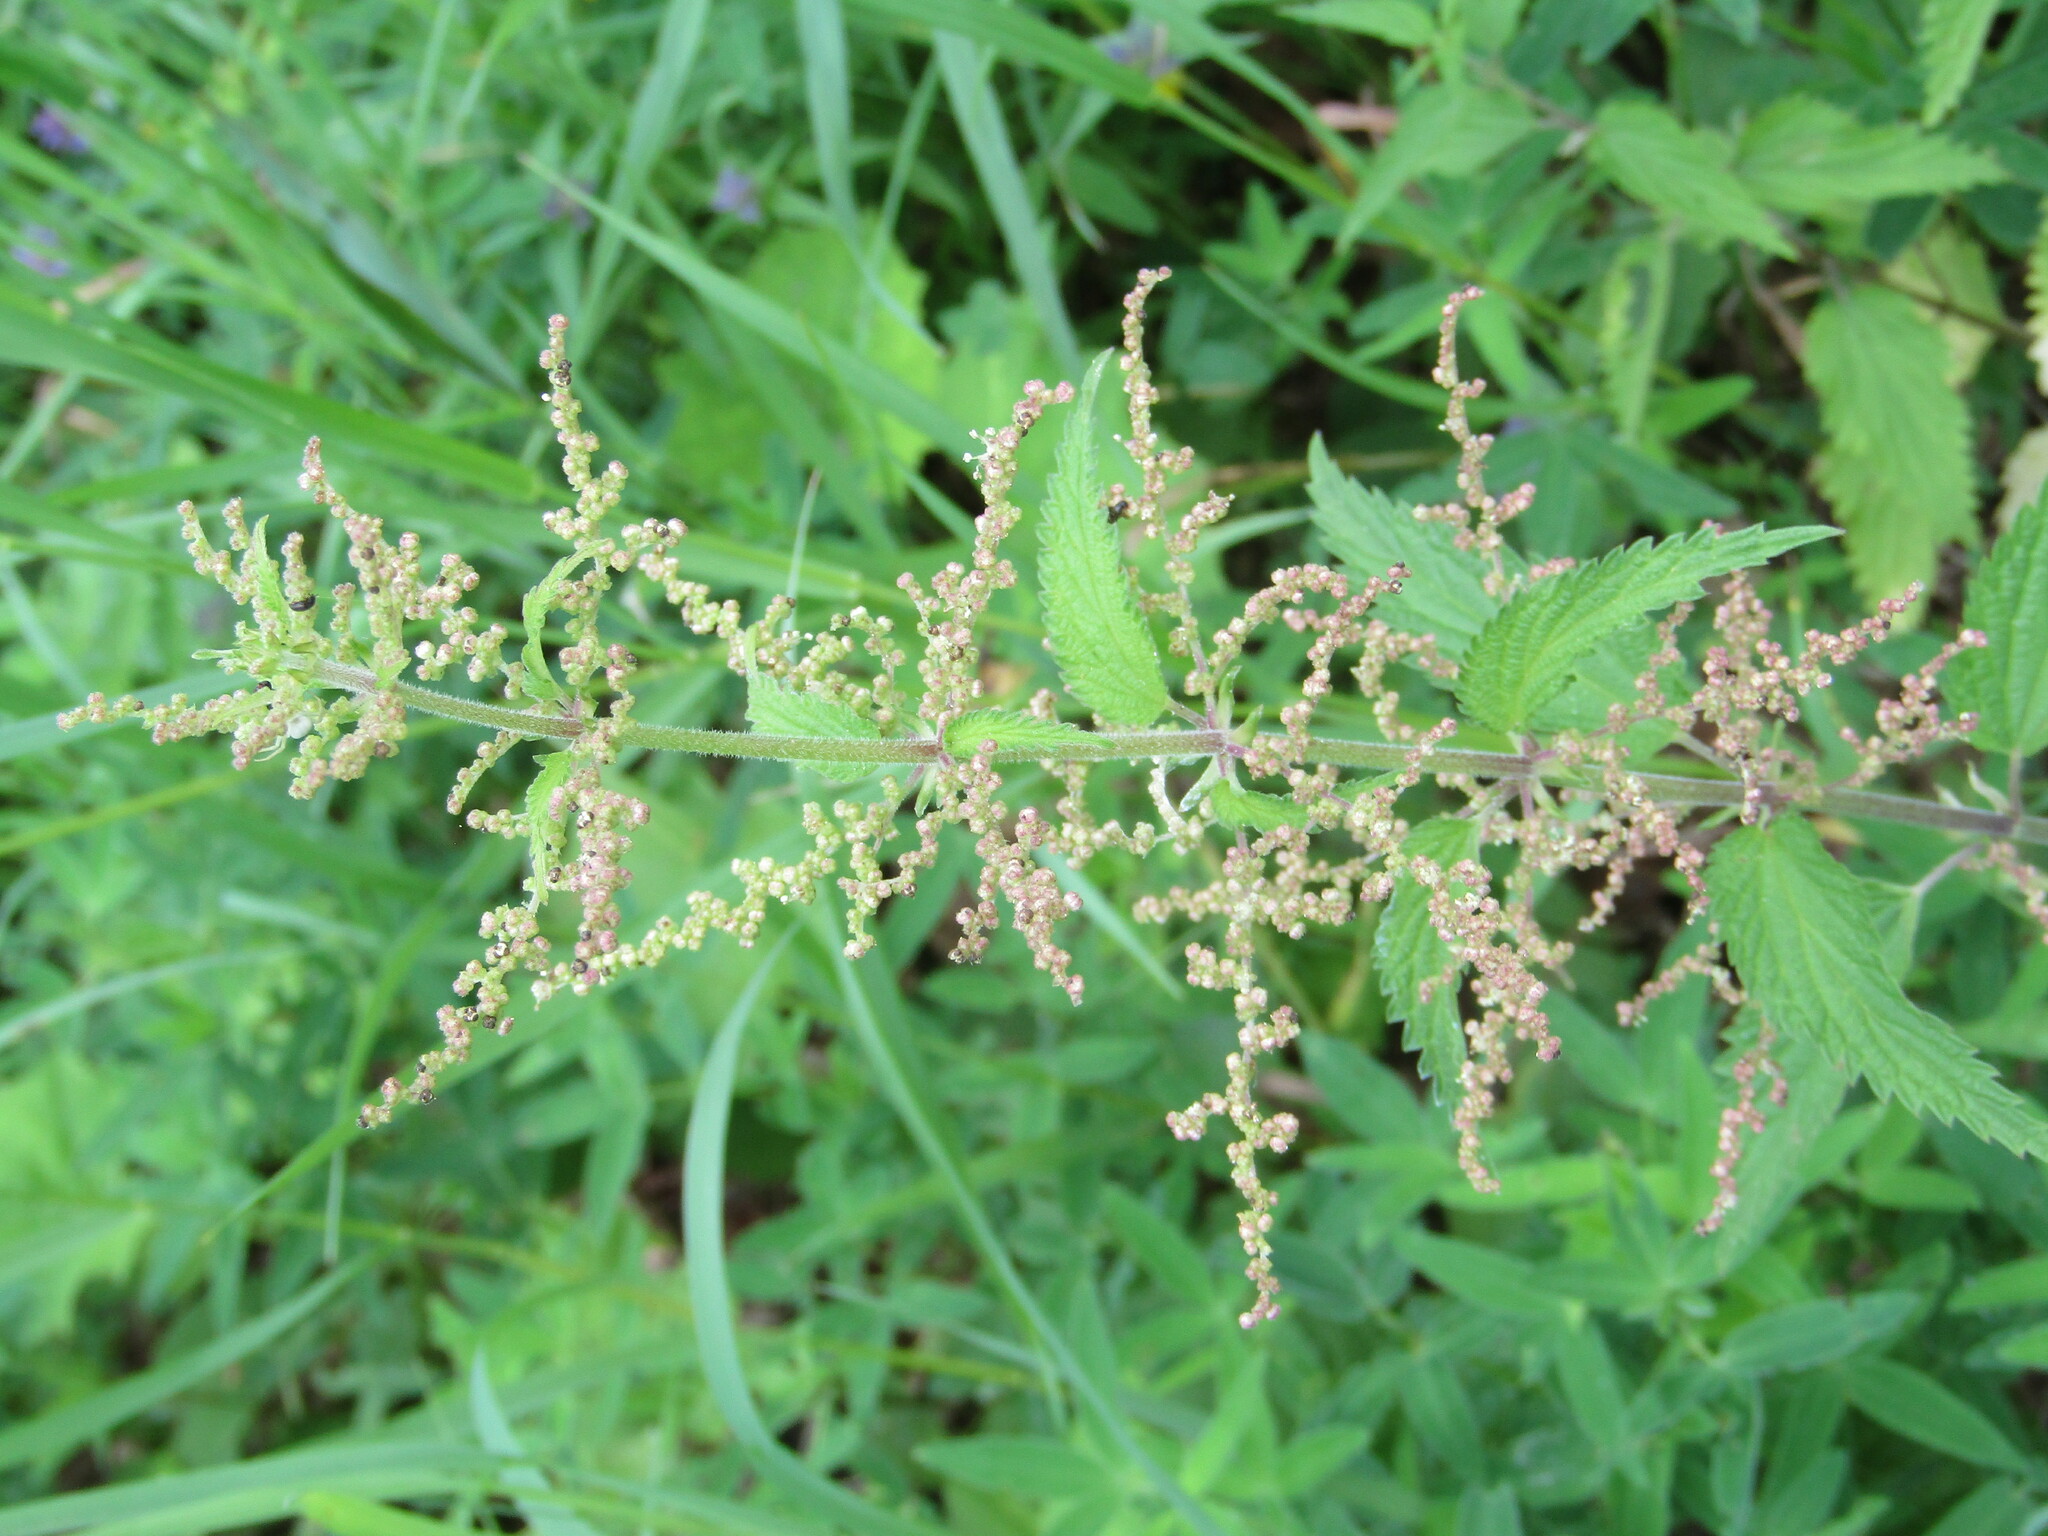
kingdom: Plantae
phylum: Tracheophyta
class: Magnoliopsida
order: Rosales
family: Urticaceae
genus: Urtica
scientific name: Urtica galeopsifolia
